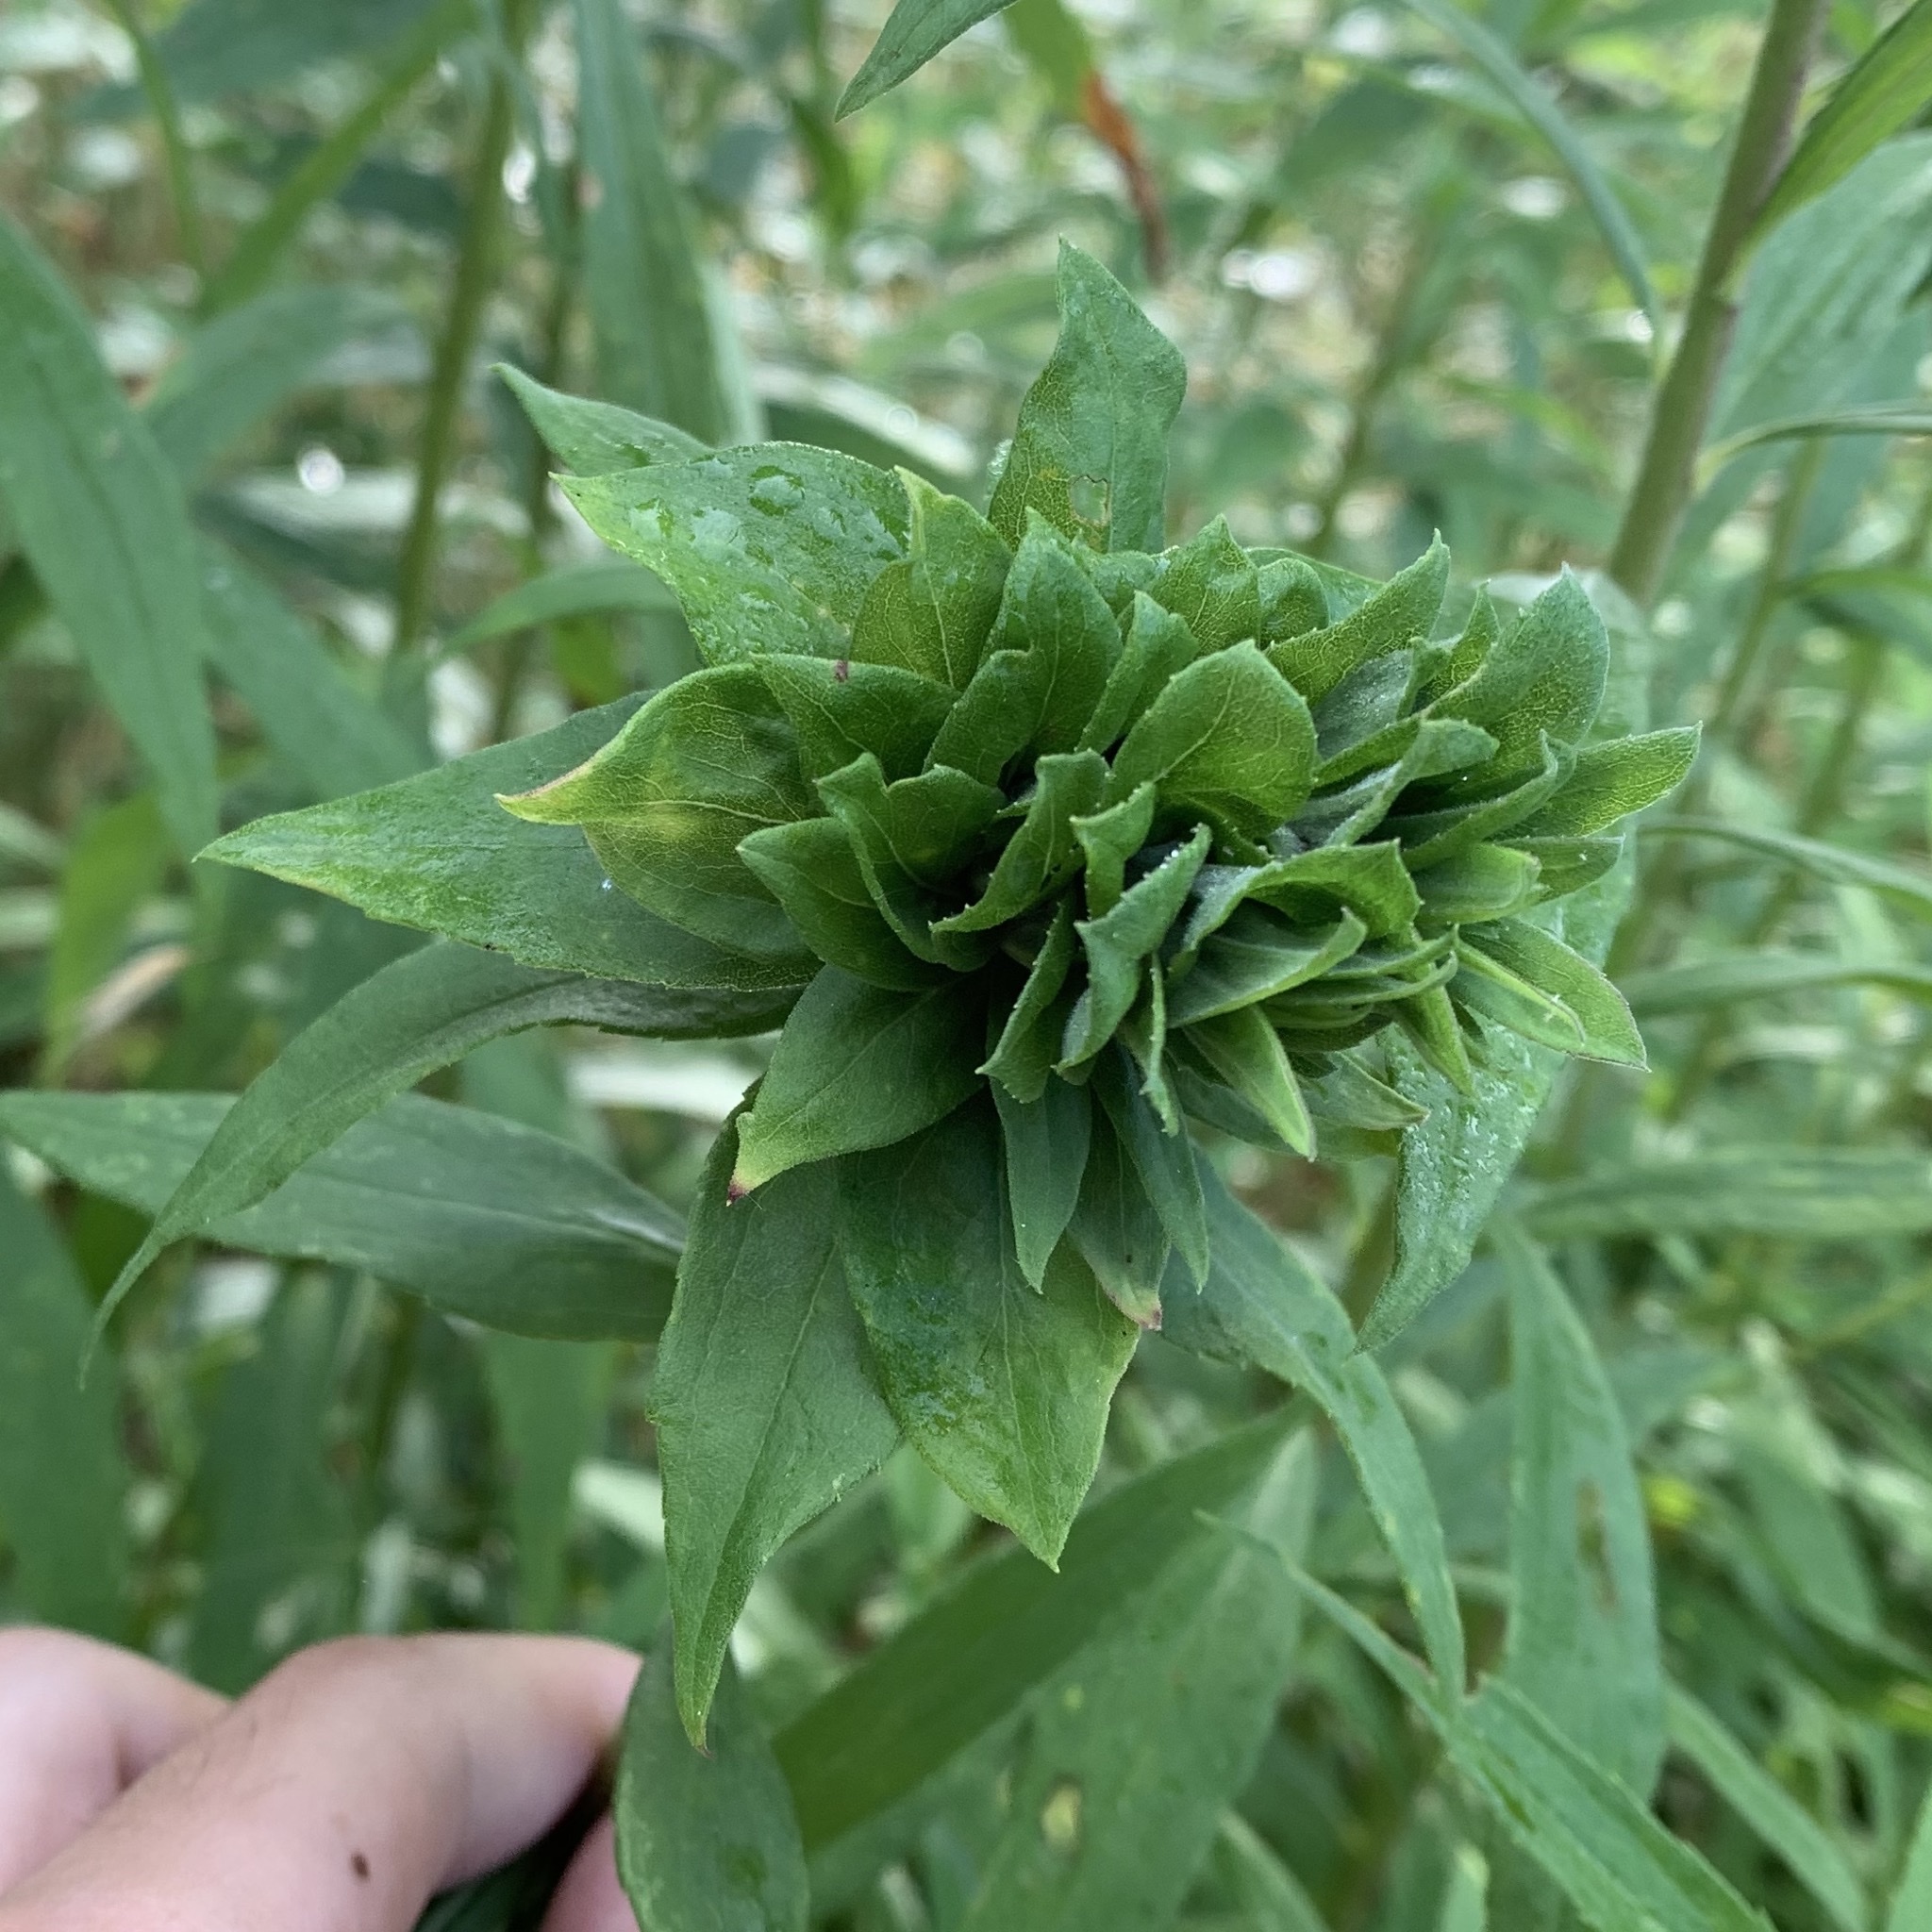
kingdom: Animalia
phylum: Arthropoda
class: Insecta
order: Diptera
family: Cecidomyiidae
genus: Rhopalomyia
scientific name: Rhopalomyia solidaginis
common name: Goldenrod bunch gall midge
